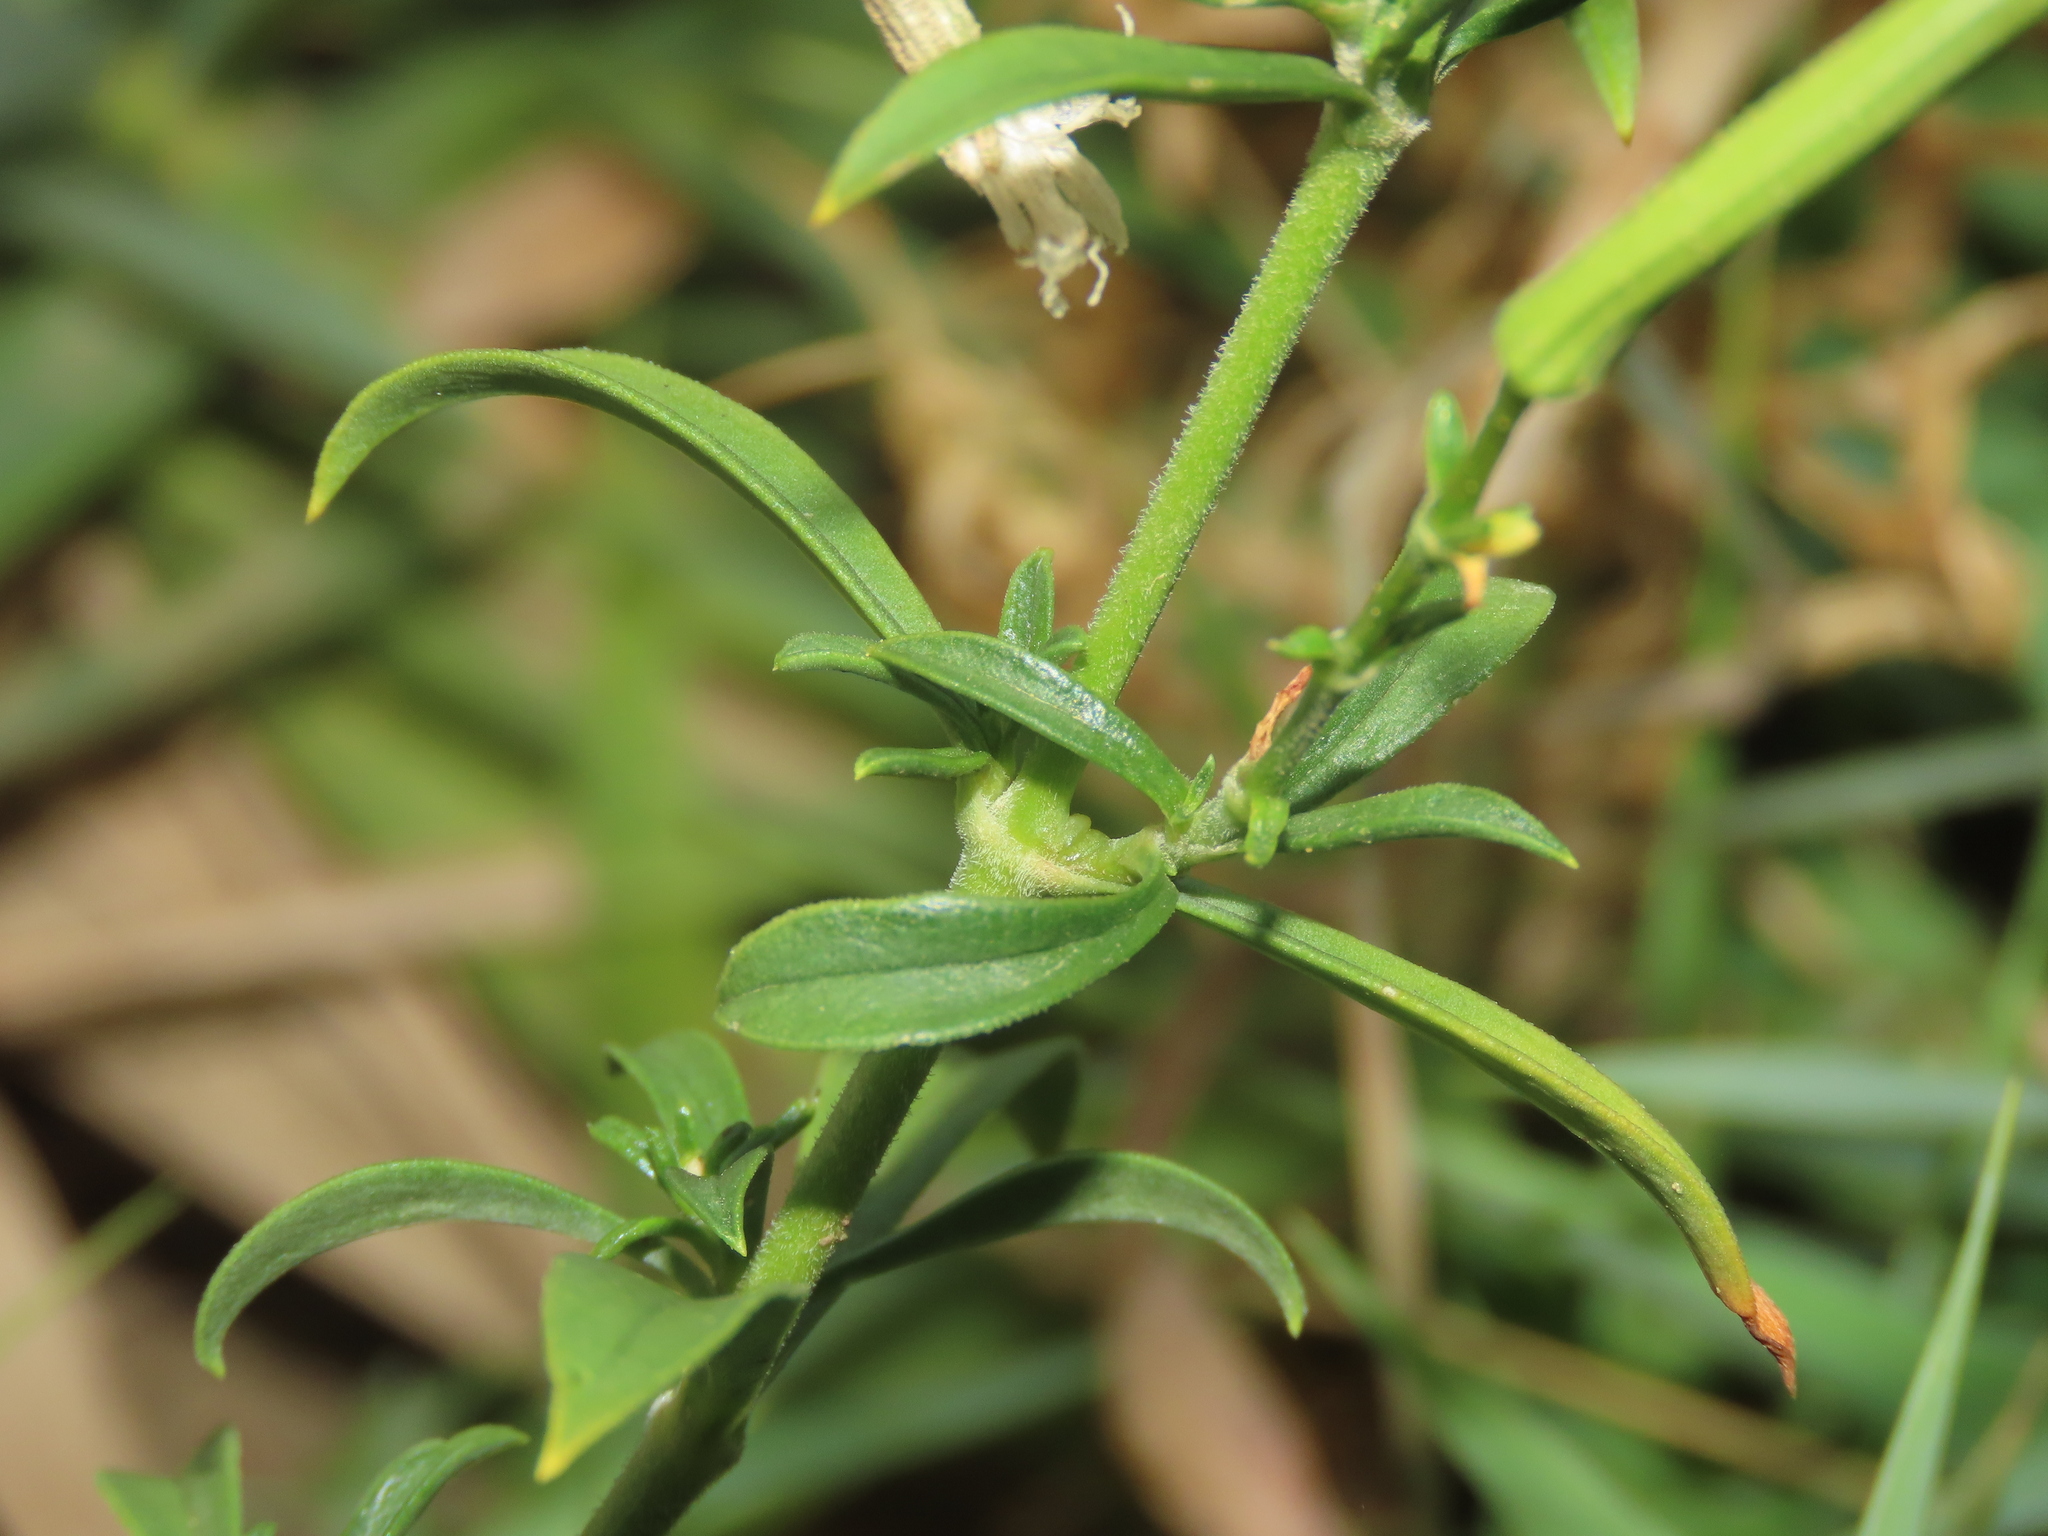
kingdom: Plantae
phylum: Tracheophyta
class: Magnoliopsida
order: Caryophyllales
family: Caryophyllaceae
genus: Silene
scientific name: Silene fissipetala
